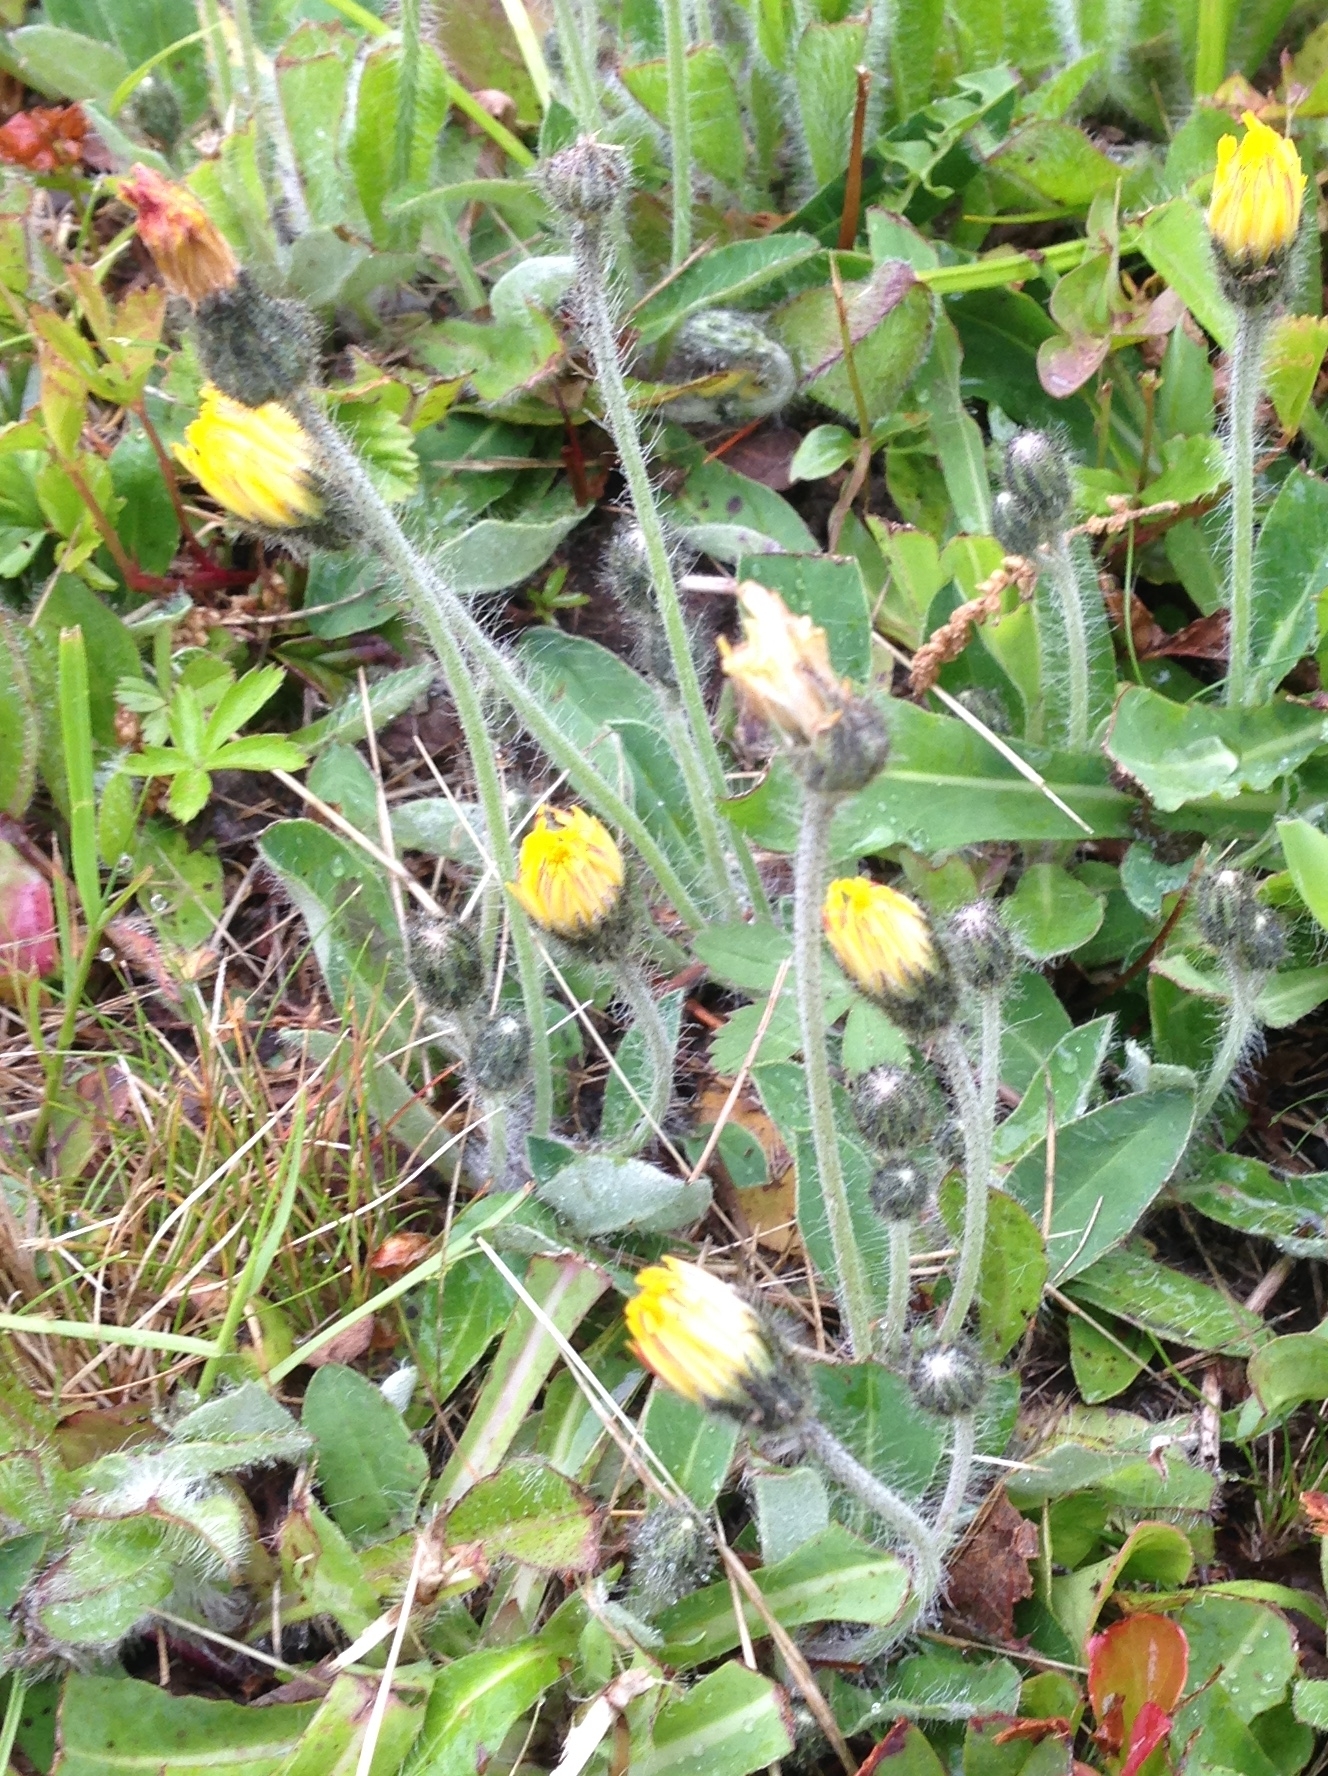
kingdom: Plantae
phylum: Tracheophyta
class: Magnoliopsida
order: Asterales
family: Asteraceae
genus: Pilosella
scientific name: Pilosella officinarum
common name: Mouse-ear hawkweed
